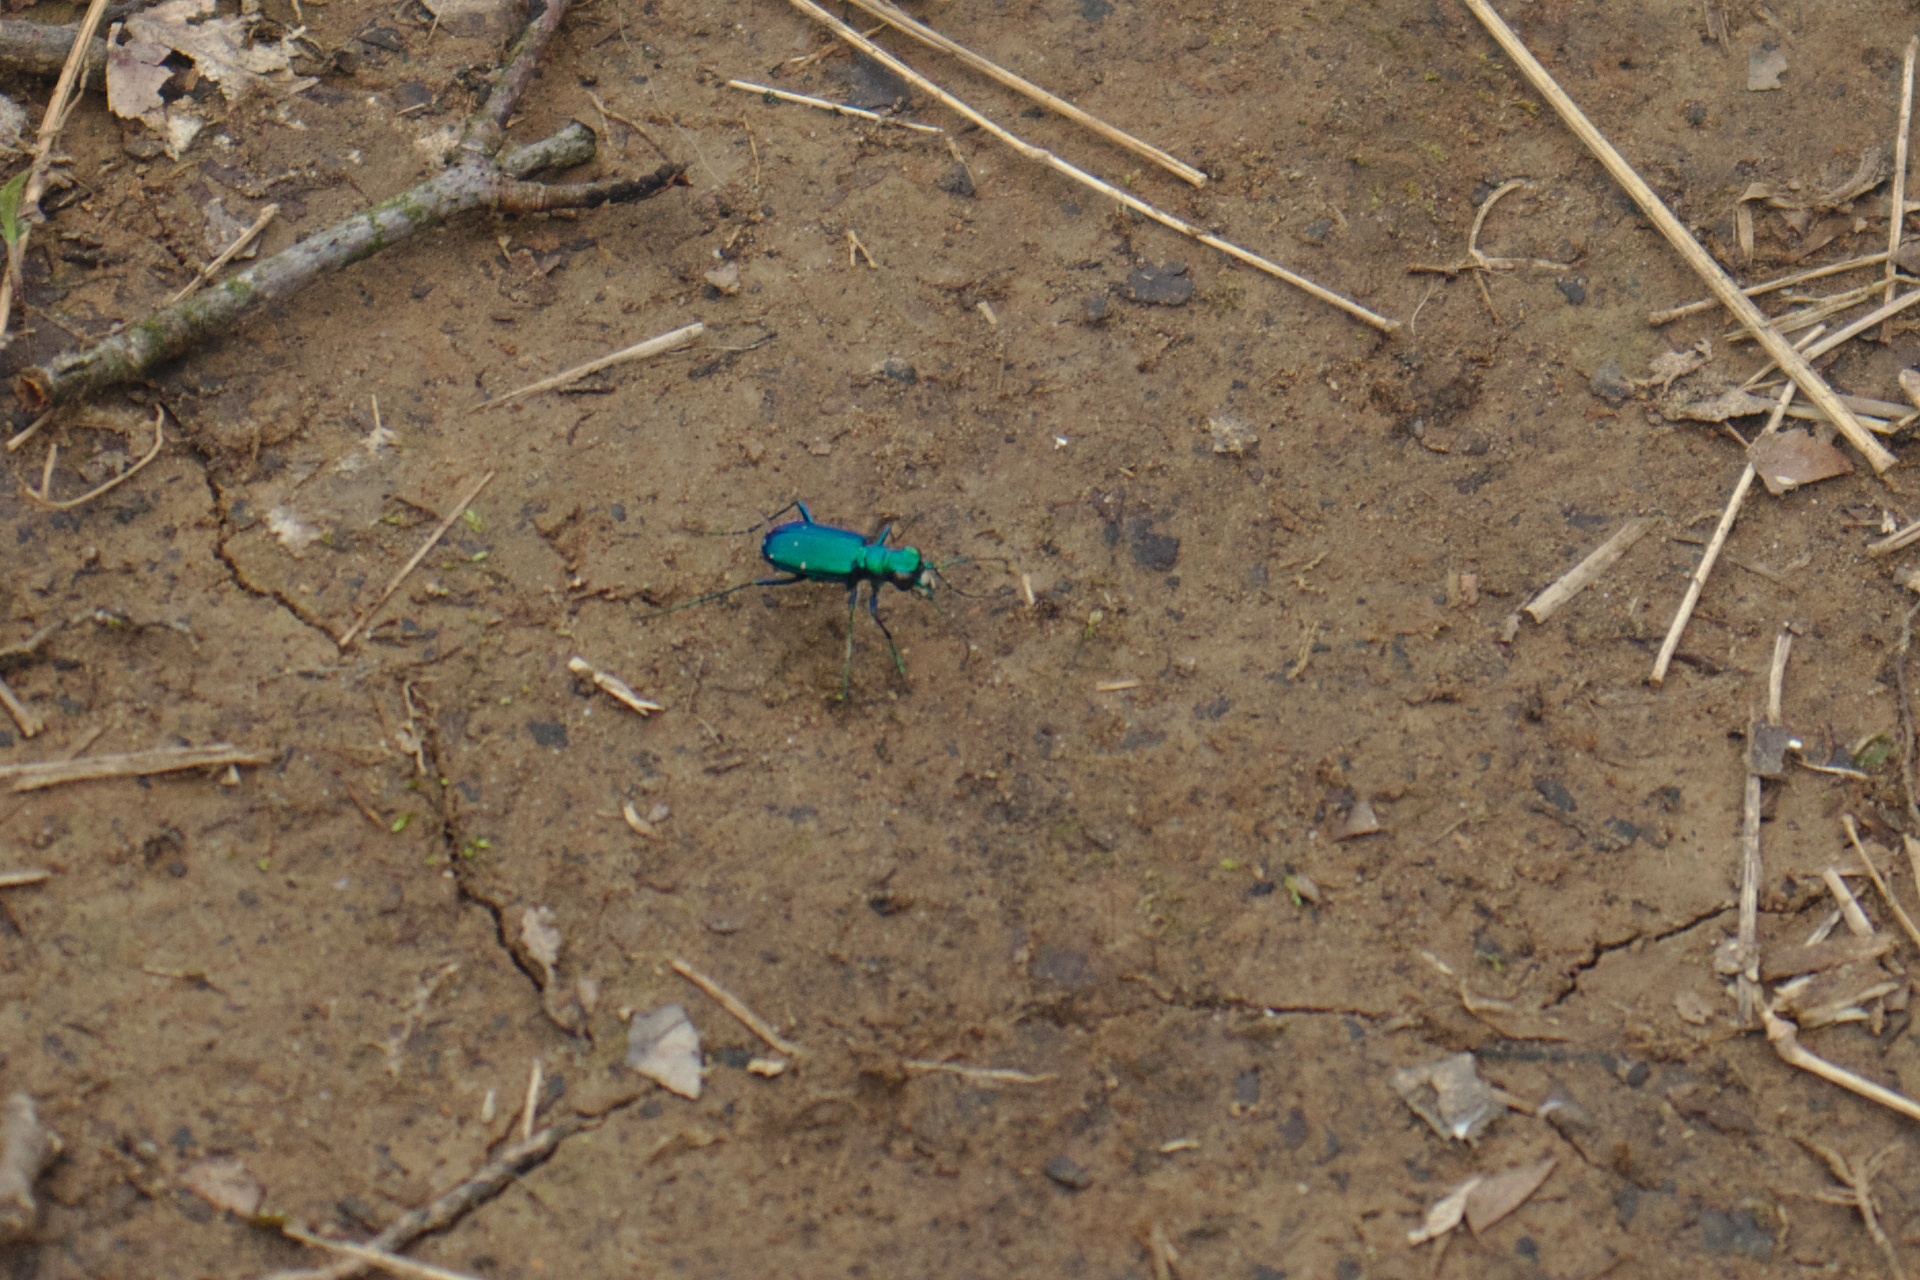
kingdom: Animalia
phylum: Arthropoda
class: Insecta
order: Coleoptera
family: Carabidae
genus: Cicindela
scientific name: Cicindela sexguttata
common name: Six-spotted tiger beetle
